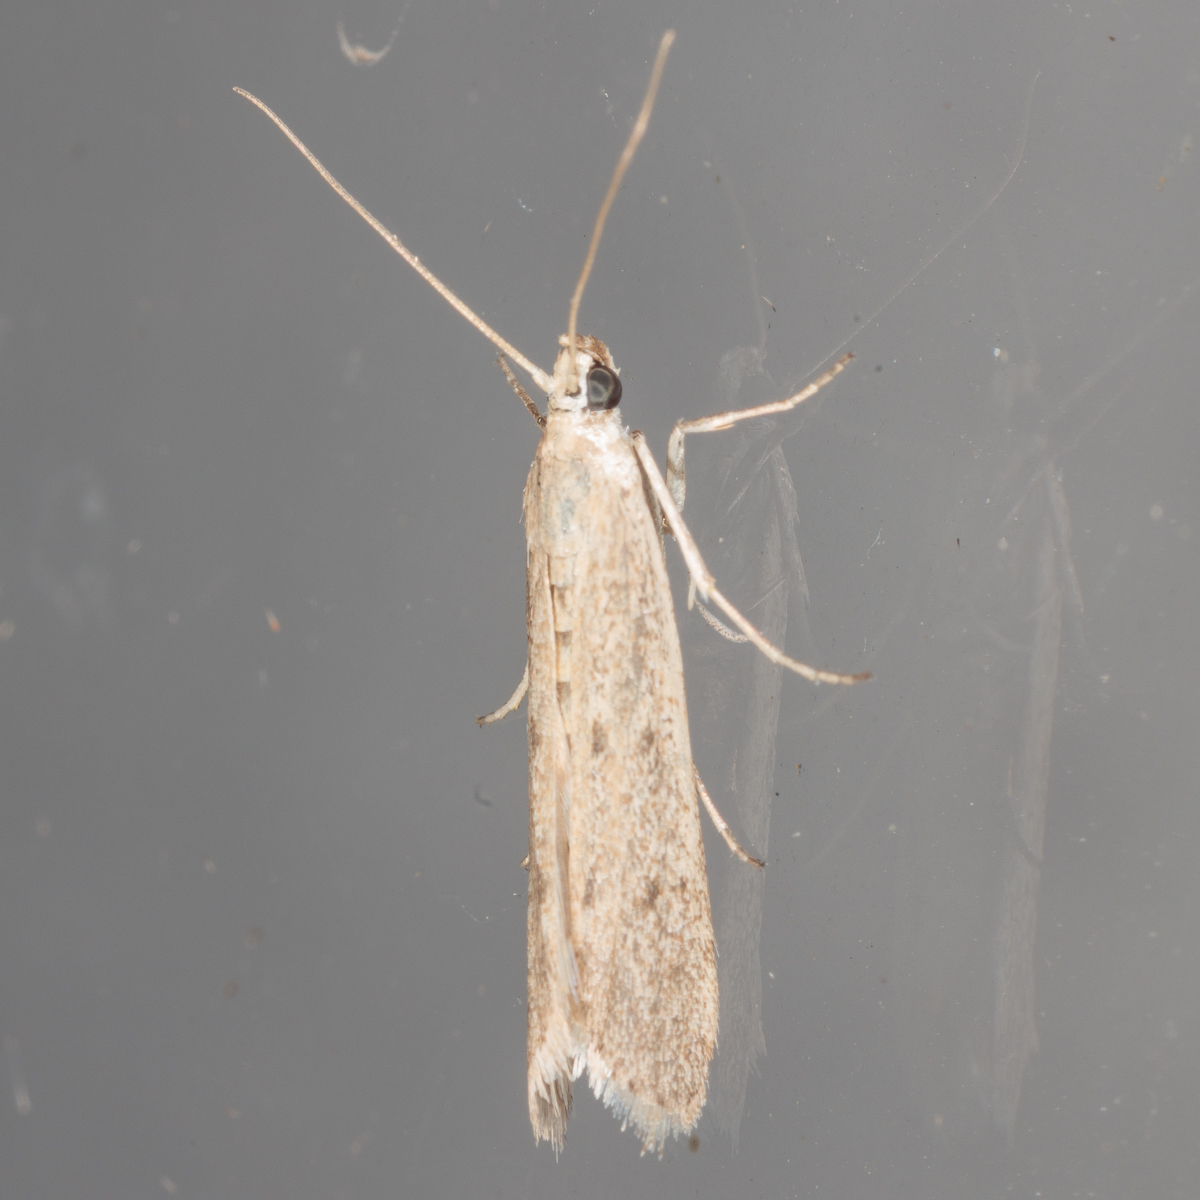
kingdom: Animalia
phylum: Arthropoda
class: Insecta
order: Lepidoptera
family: Pyralidae
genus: Homoeosoma
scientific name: Homoeosoma electella
